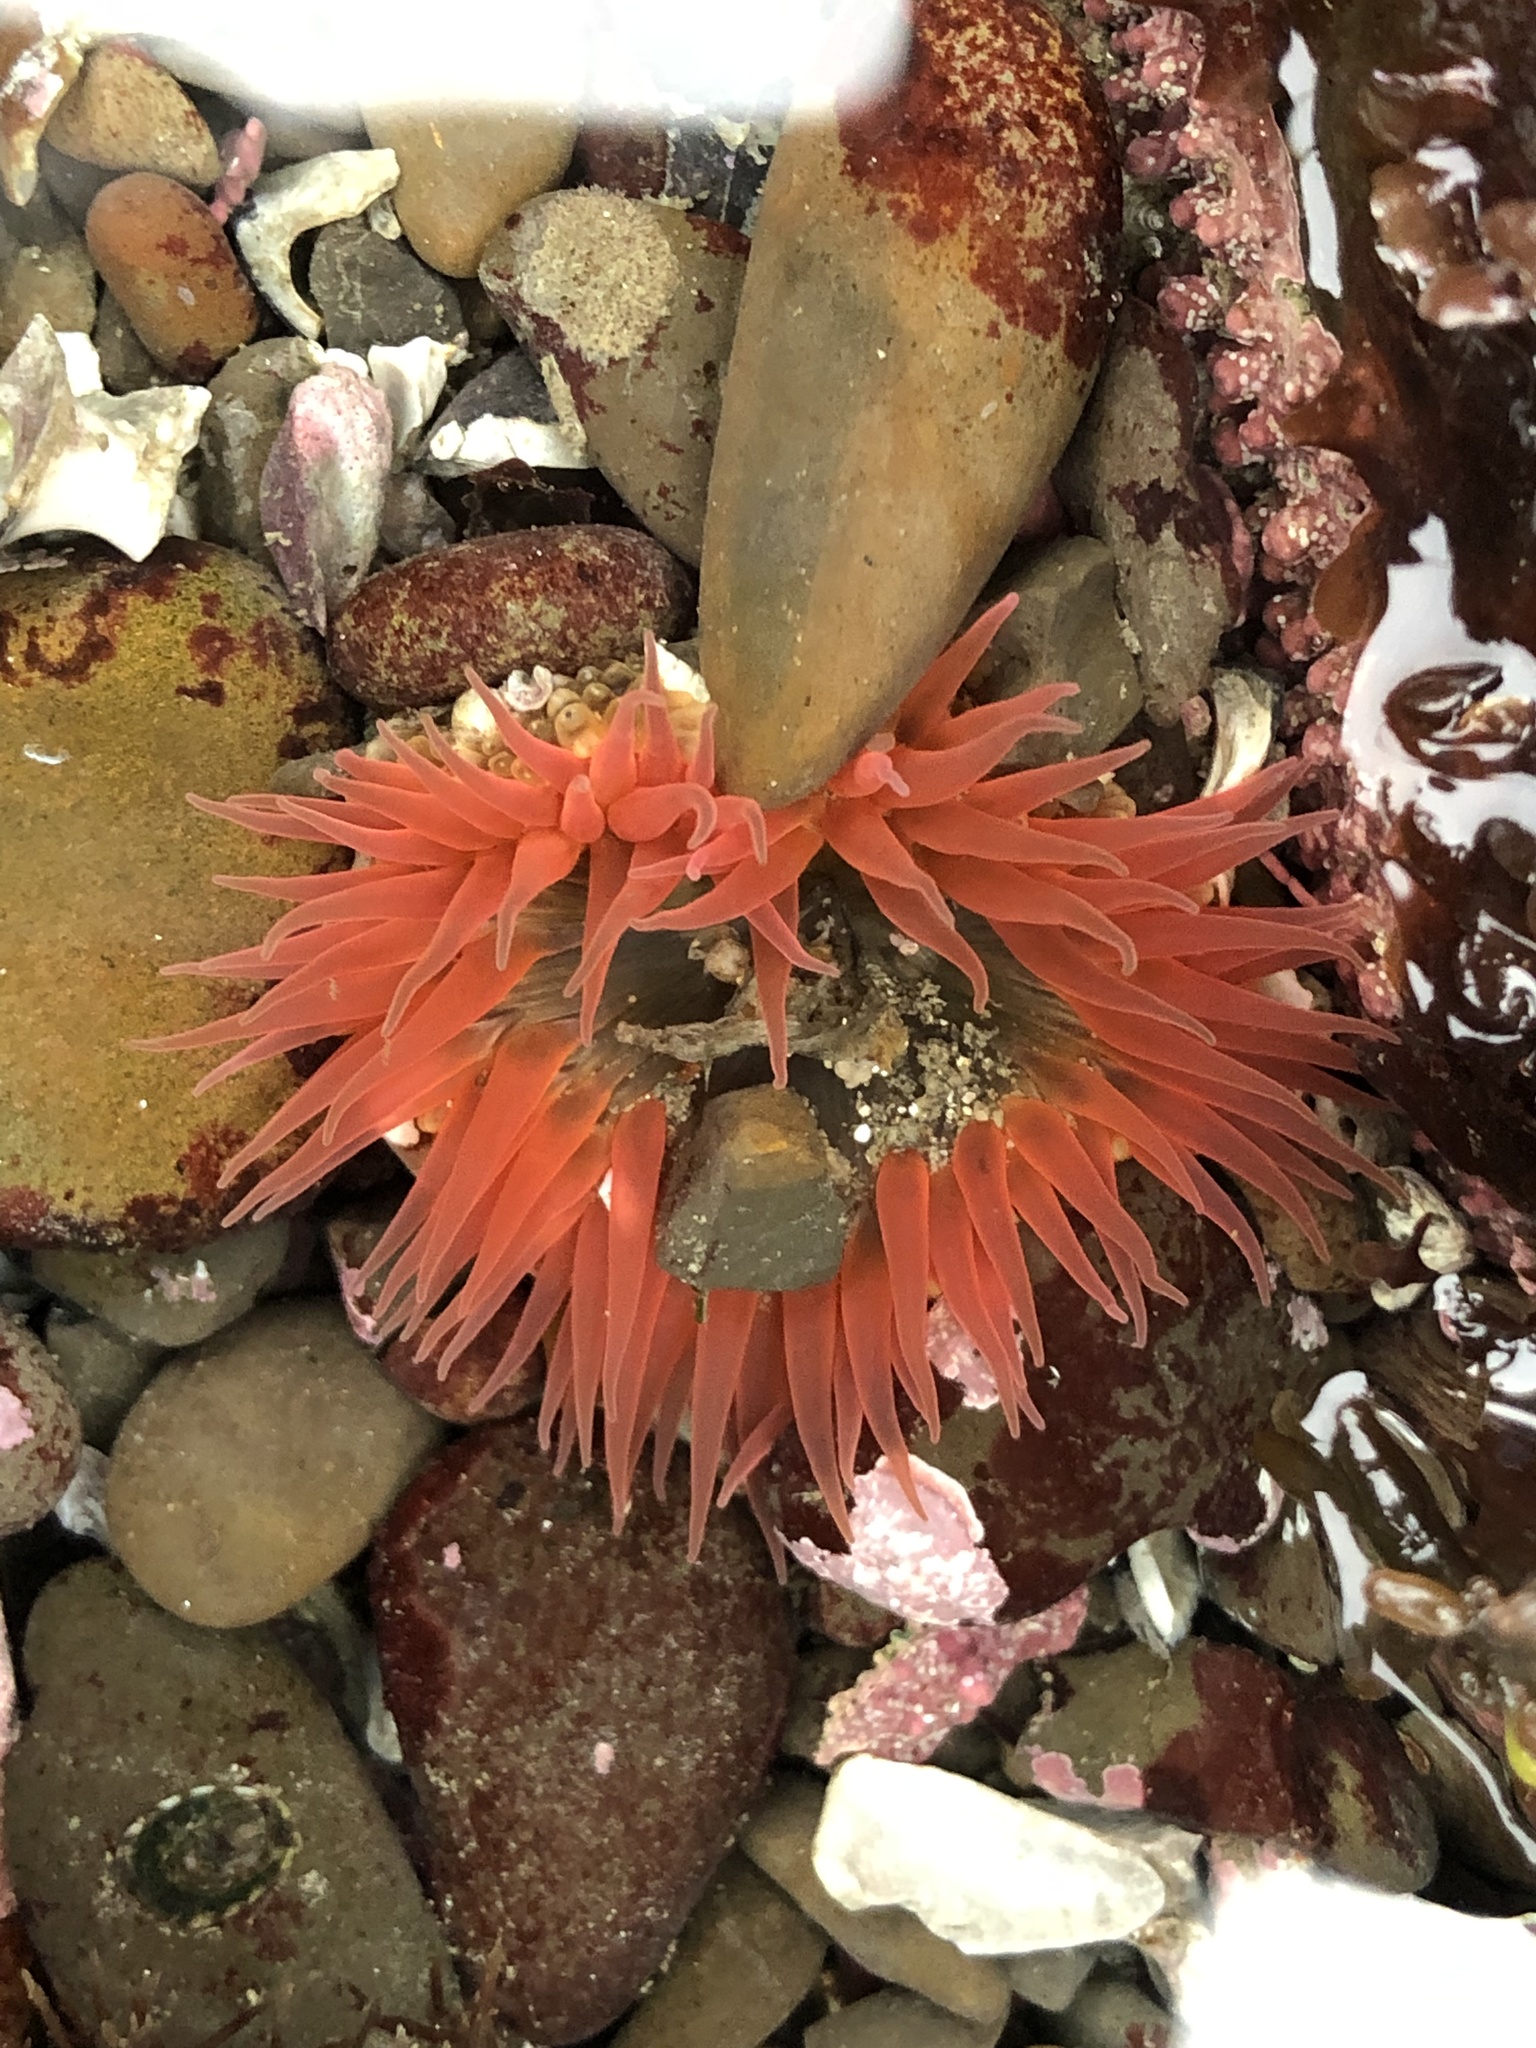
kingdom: Animalia
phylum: Cnidaria
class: Anthozoa
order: Actiniaria
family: Actiniidae
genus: Anthopleura
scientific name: Anthopleura artemisia
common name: Buried sea anemone
